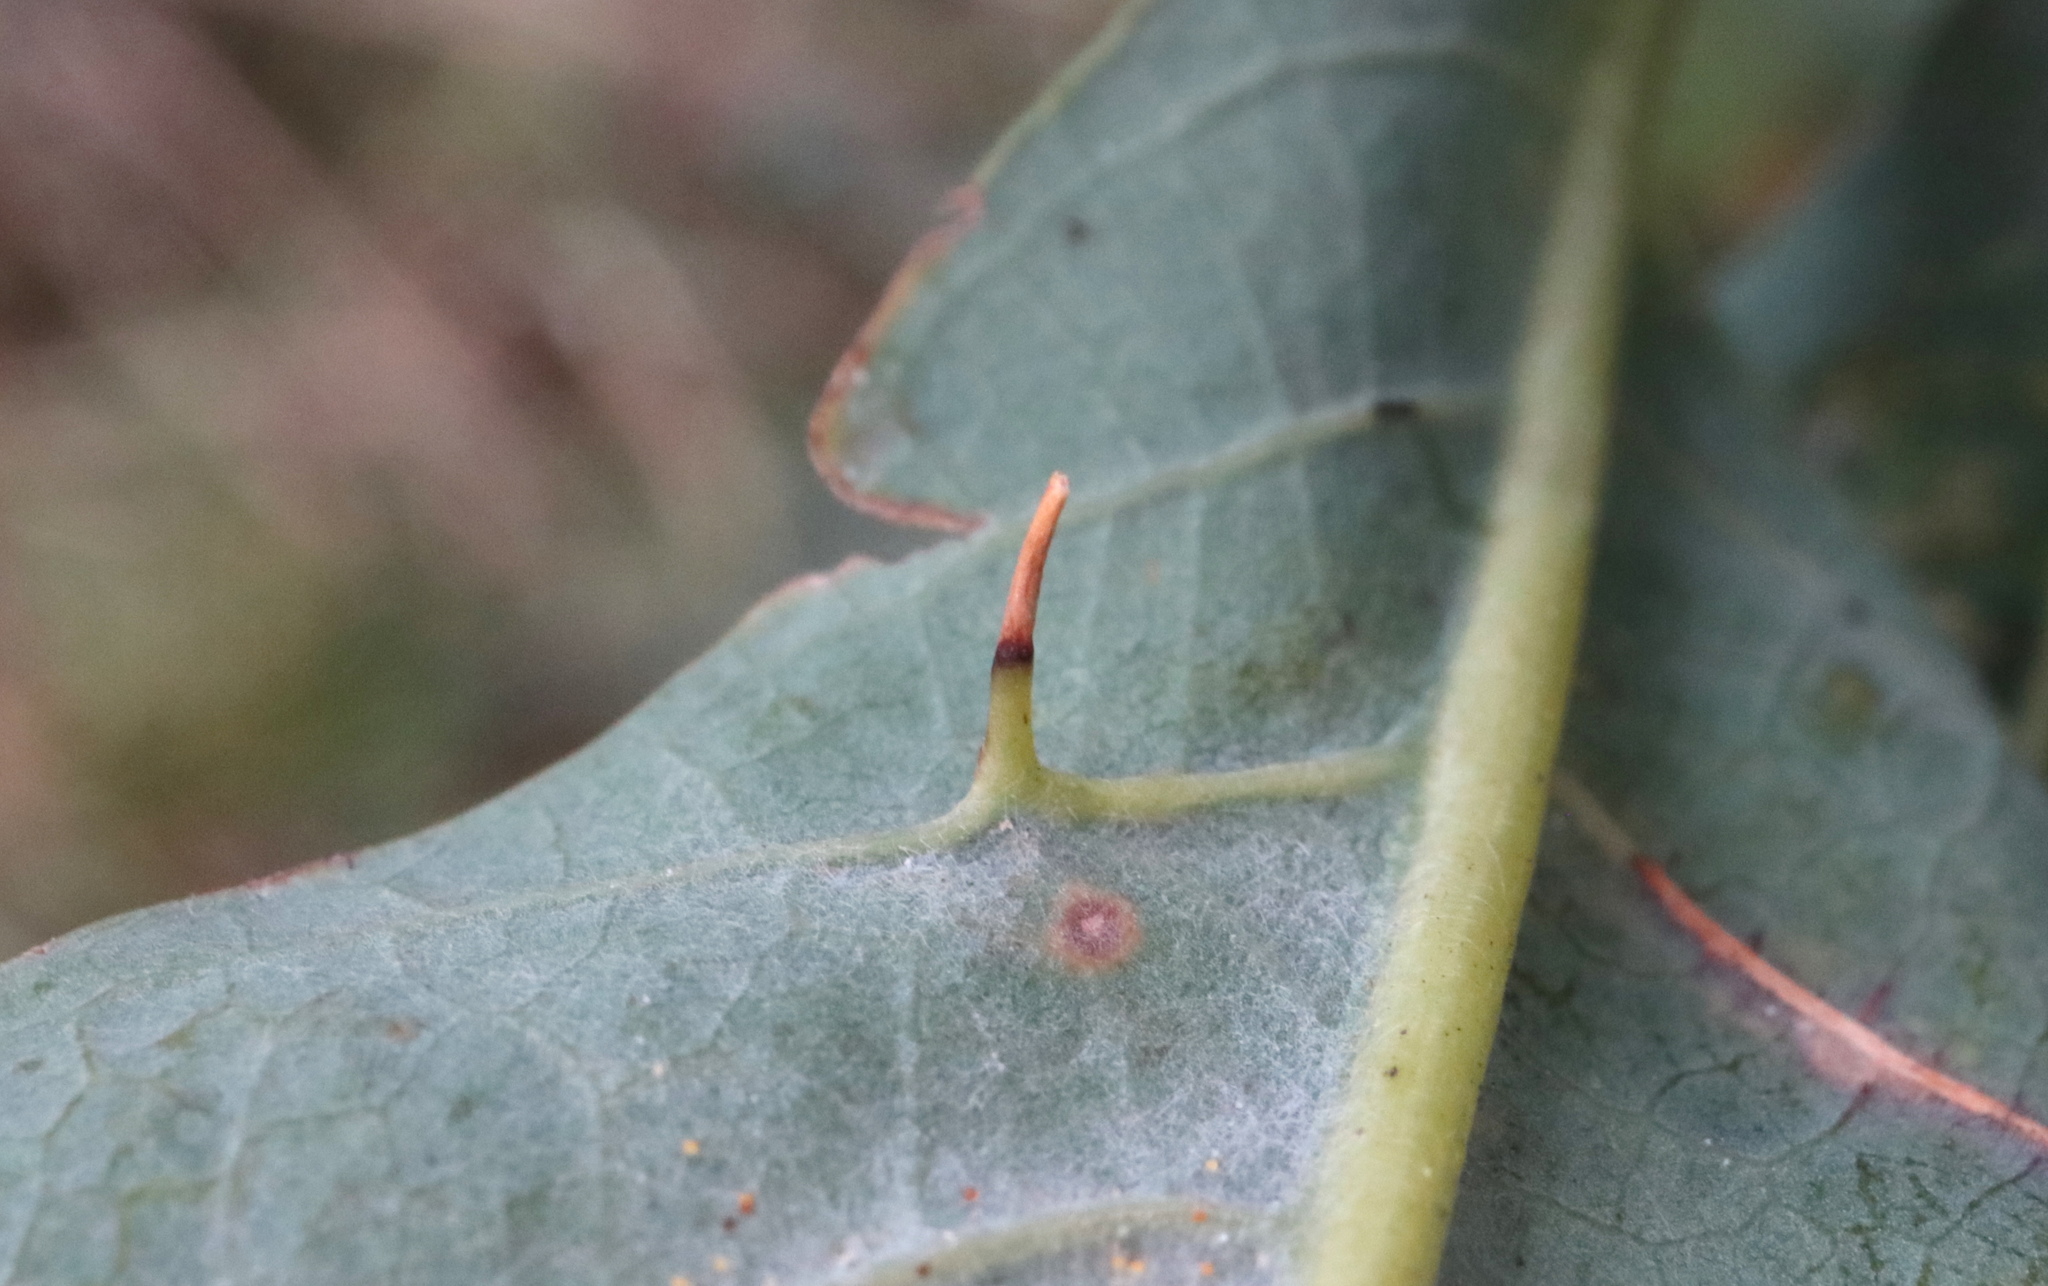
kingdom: Animalia
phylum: Arthropoda
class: Insecta
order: Hymenoptera
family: Cynipidae
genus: Andricus
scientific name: Andricus
